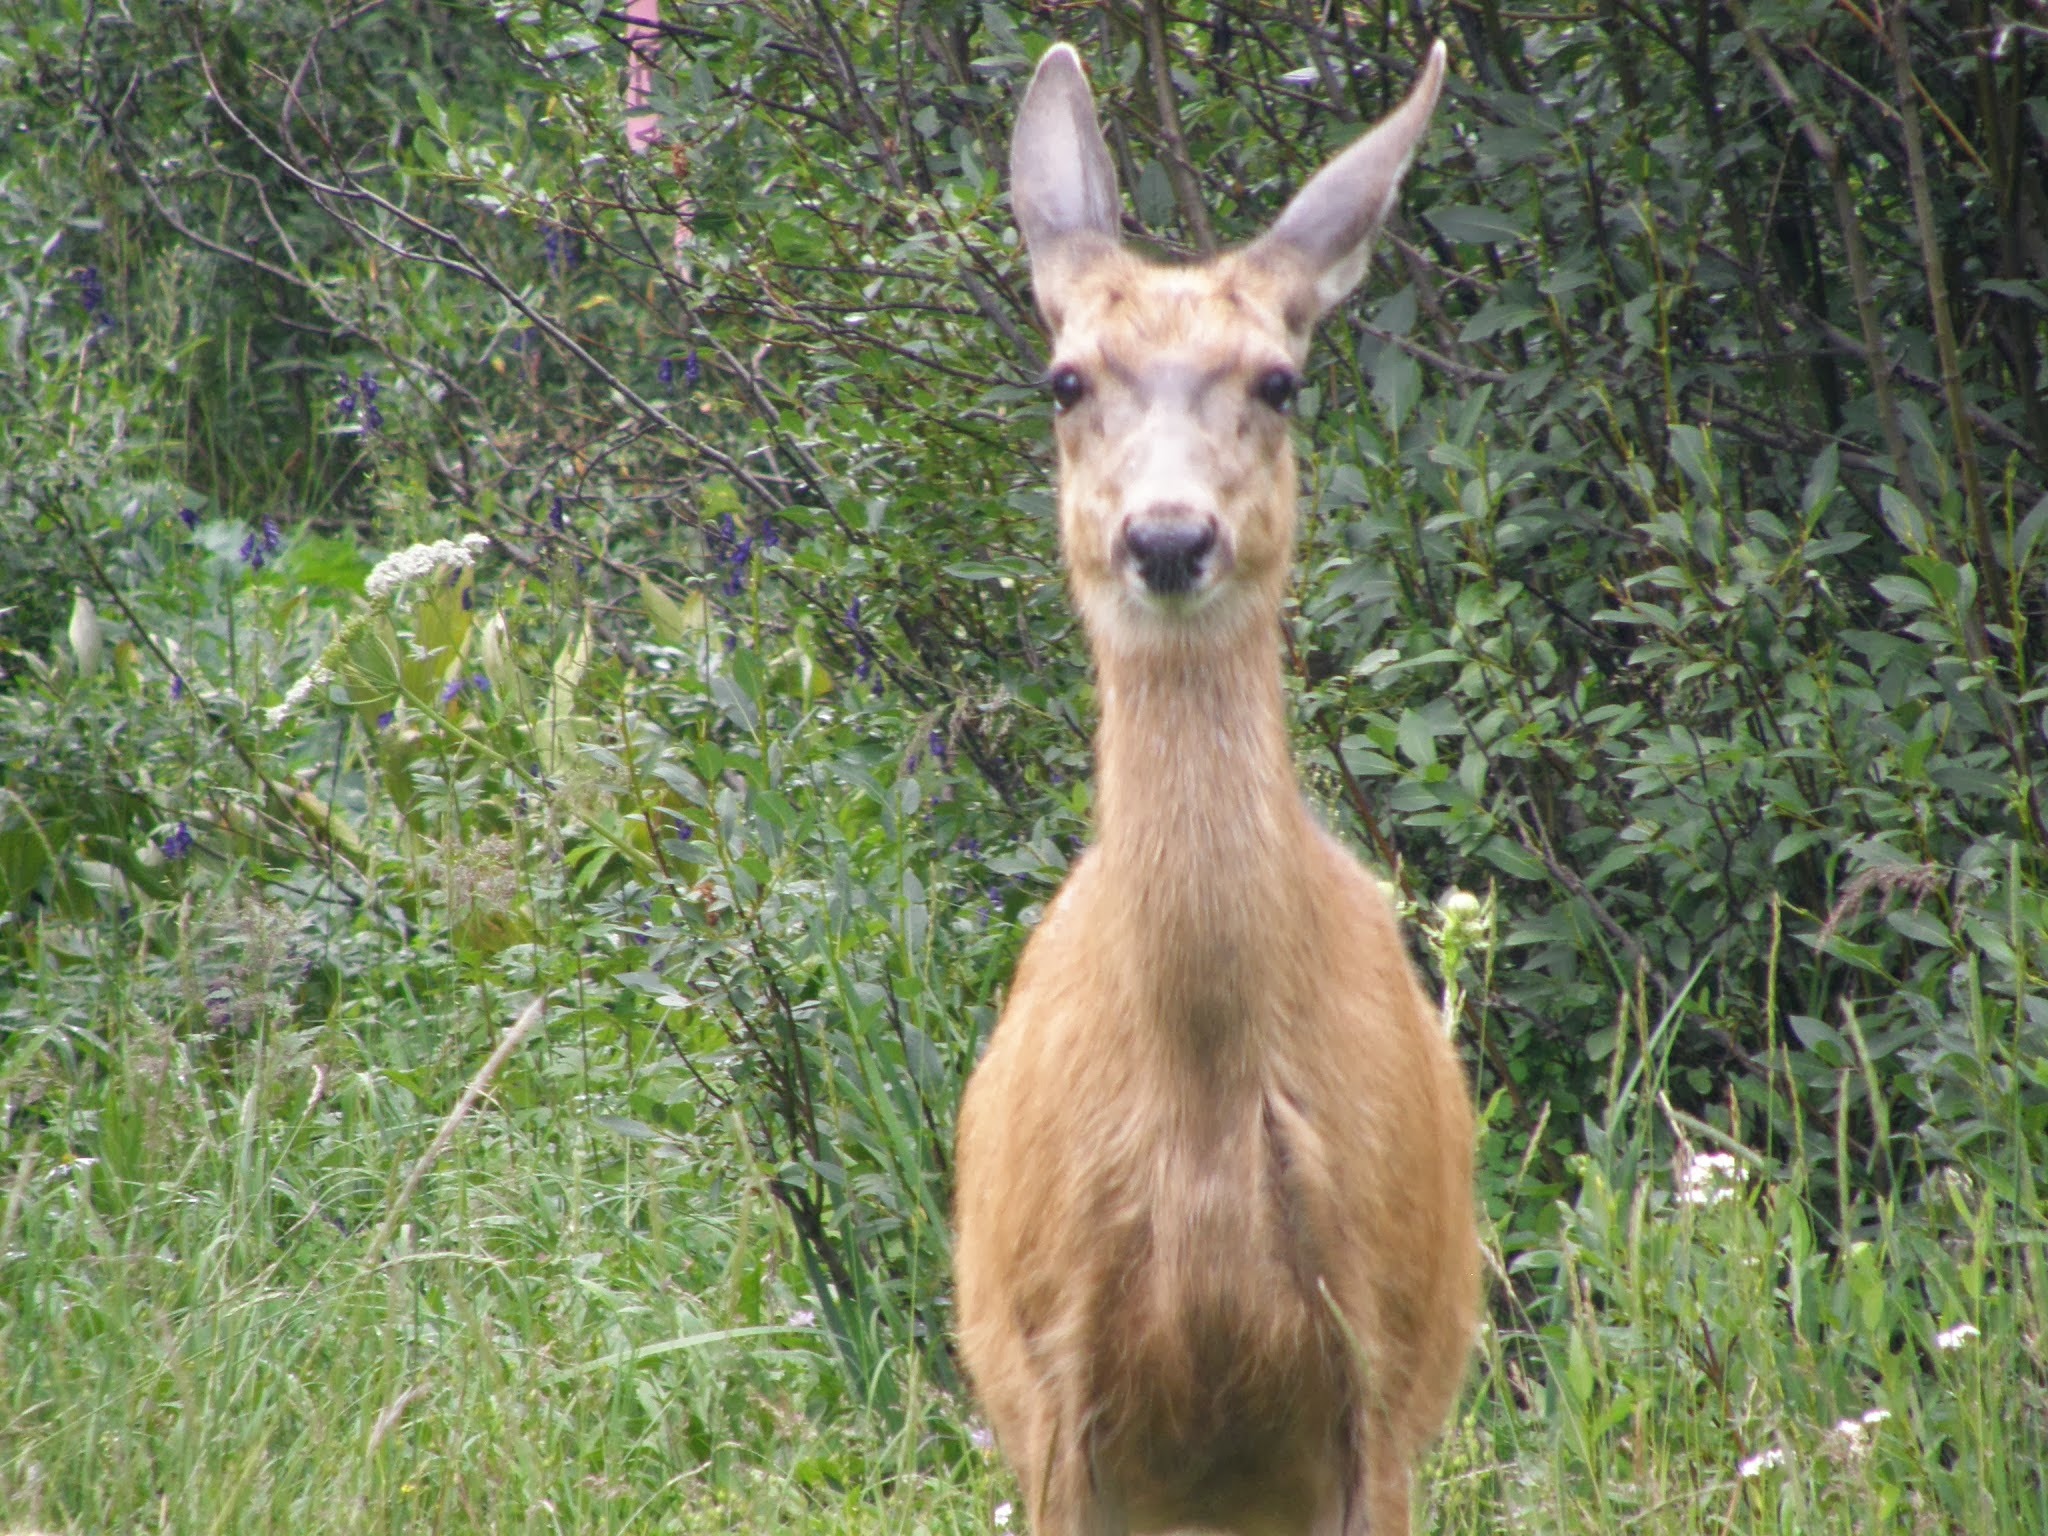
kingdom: Animalia
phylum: Chordata
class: Mammalia
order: Artiodactyla
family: Cervidae
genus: Odocoileus
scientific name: Odocoileus hemionus
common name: Mule deer
